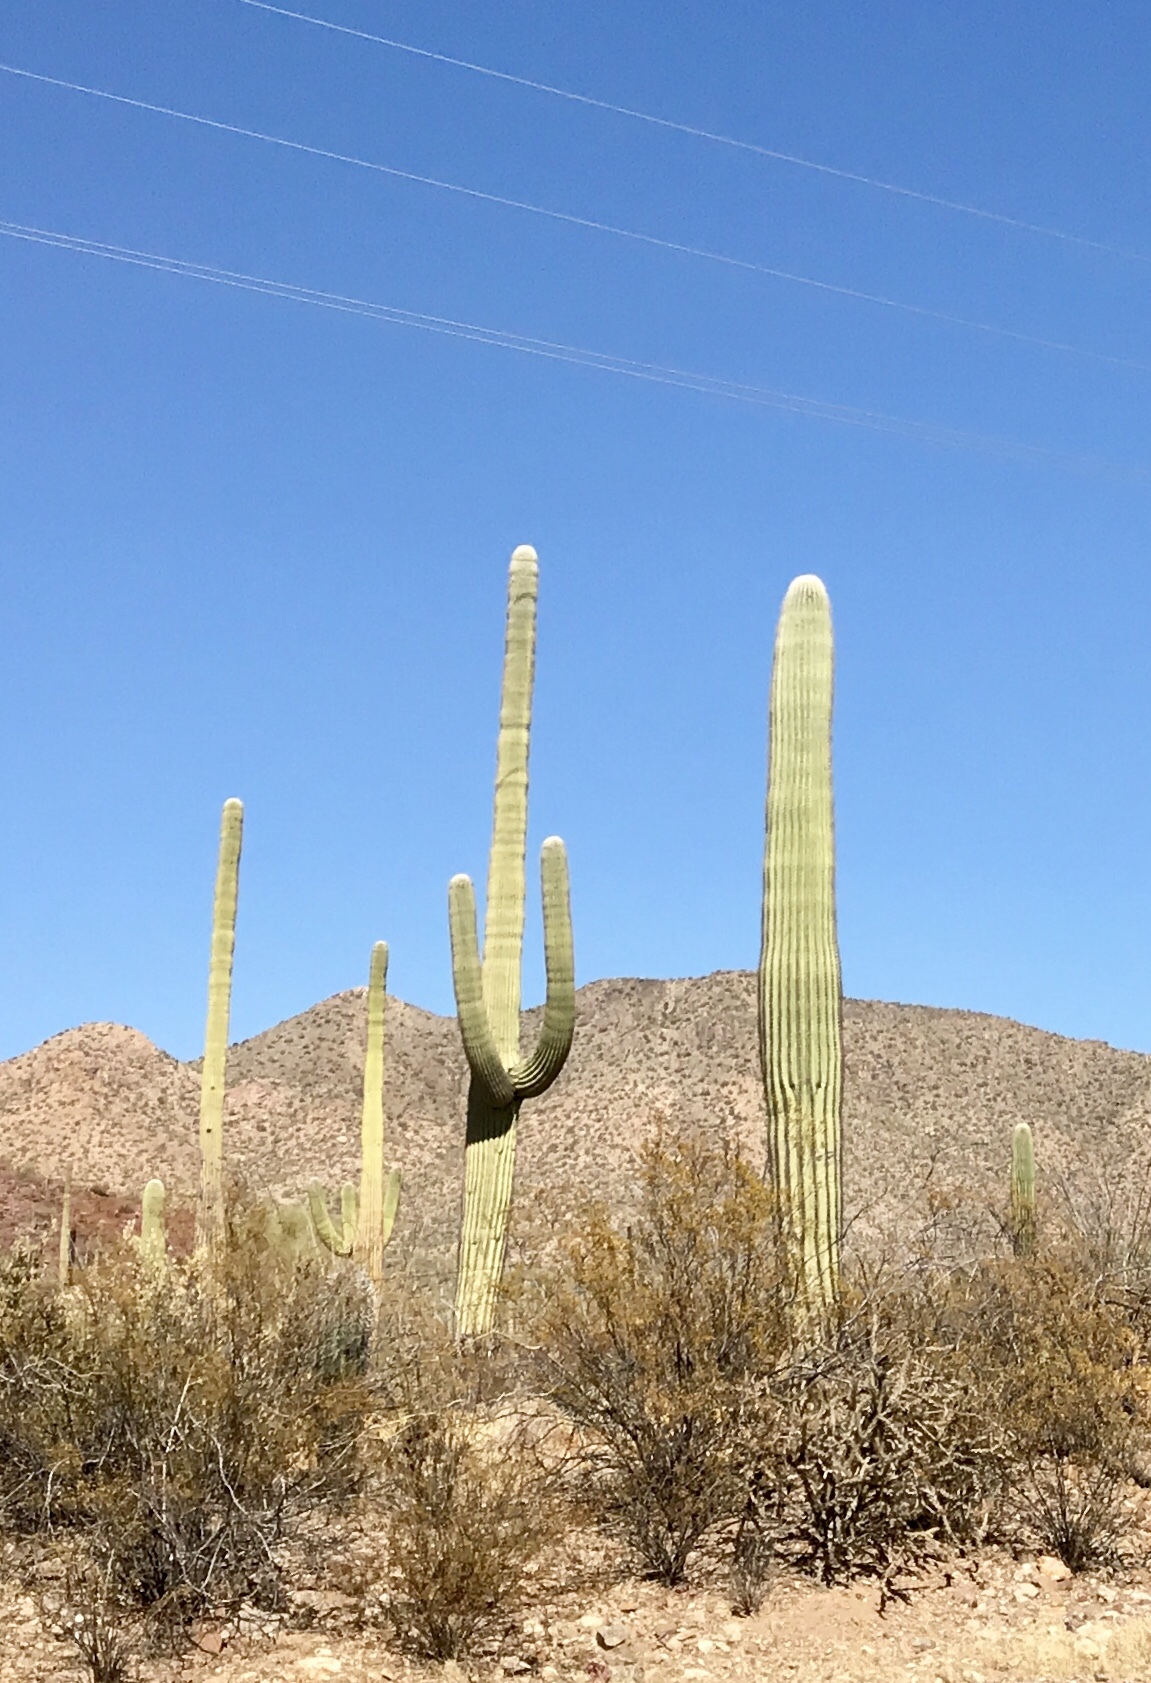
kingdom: Plantae
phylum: Tracheophyta
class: Magnoliopsida
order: Caryophyllales
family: Cactaceae
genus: Carnegiea
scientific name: Carnegiea gigantea
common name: Saguaro
